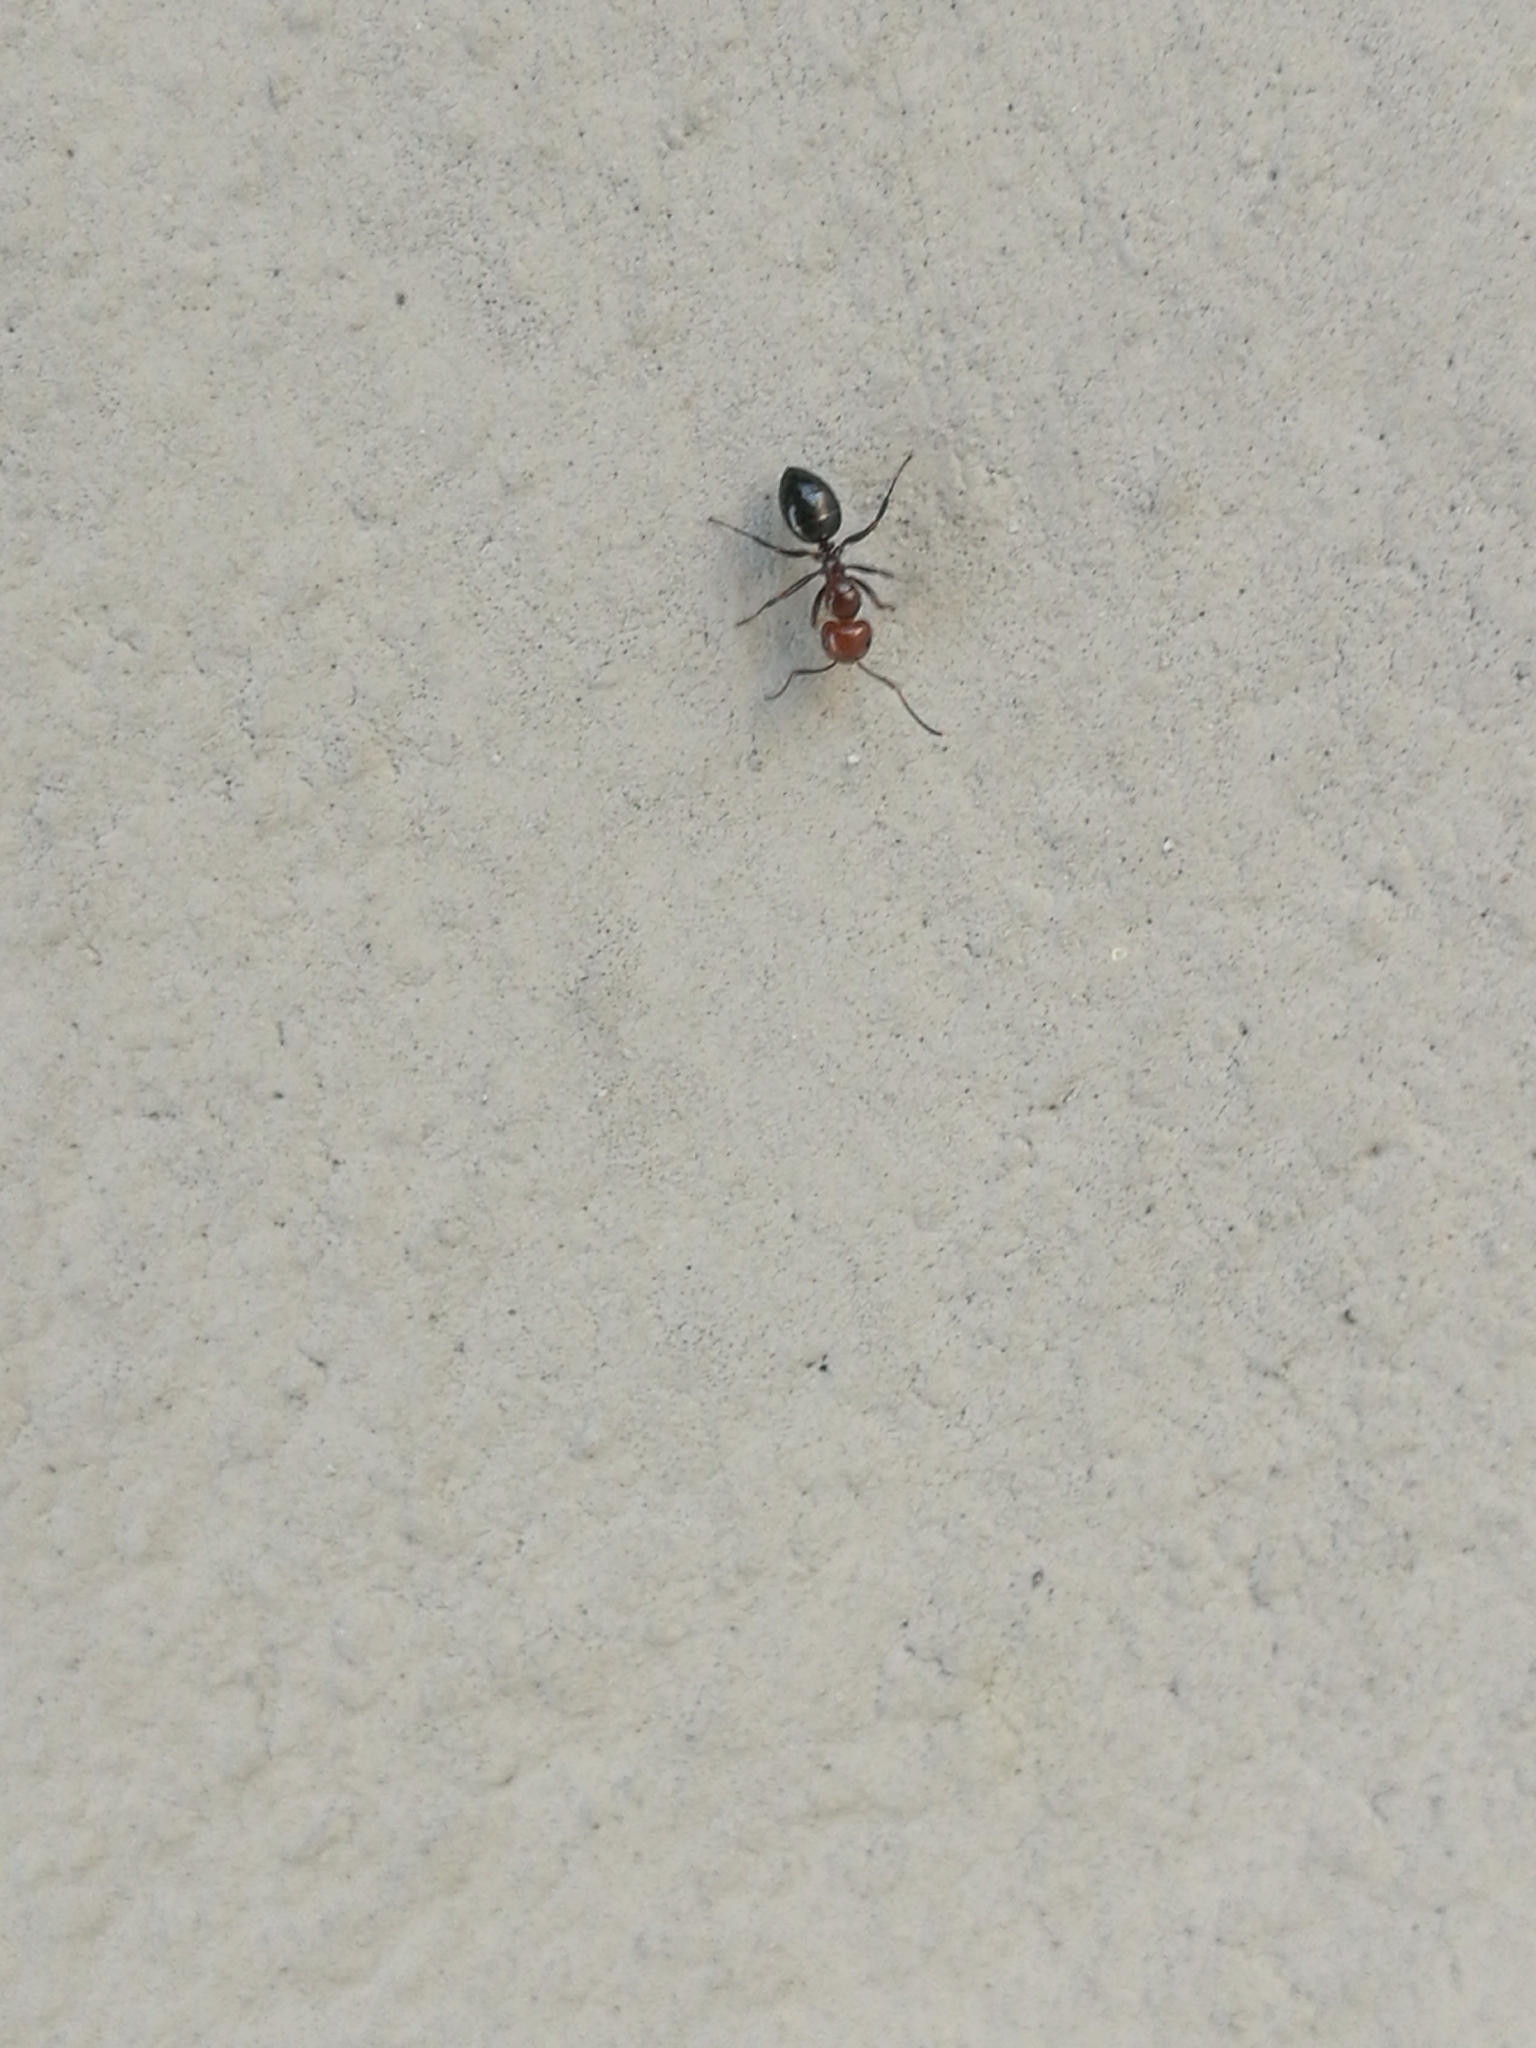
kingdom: Animalia
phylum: Arthropoda
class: Insecta
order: Hymenoptera
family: Formicidae
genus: Camponotus
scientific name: Camponotus lateralis
